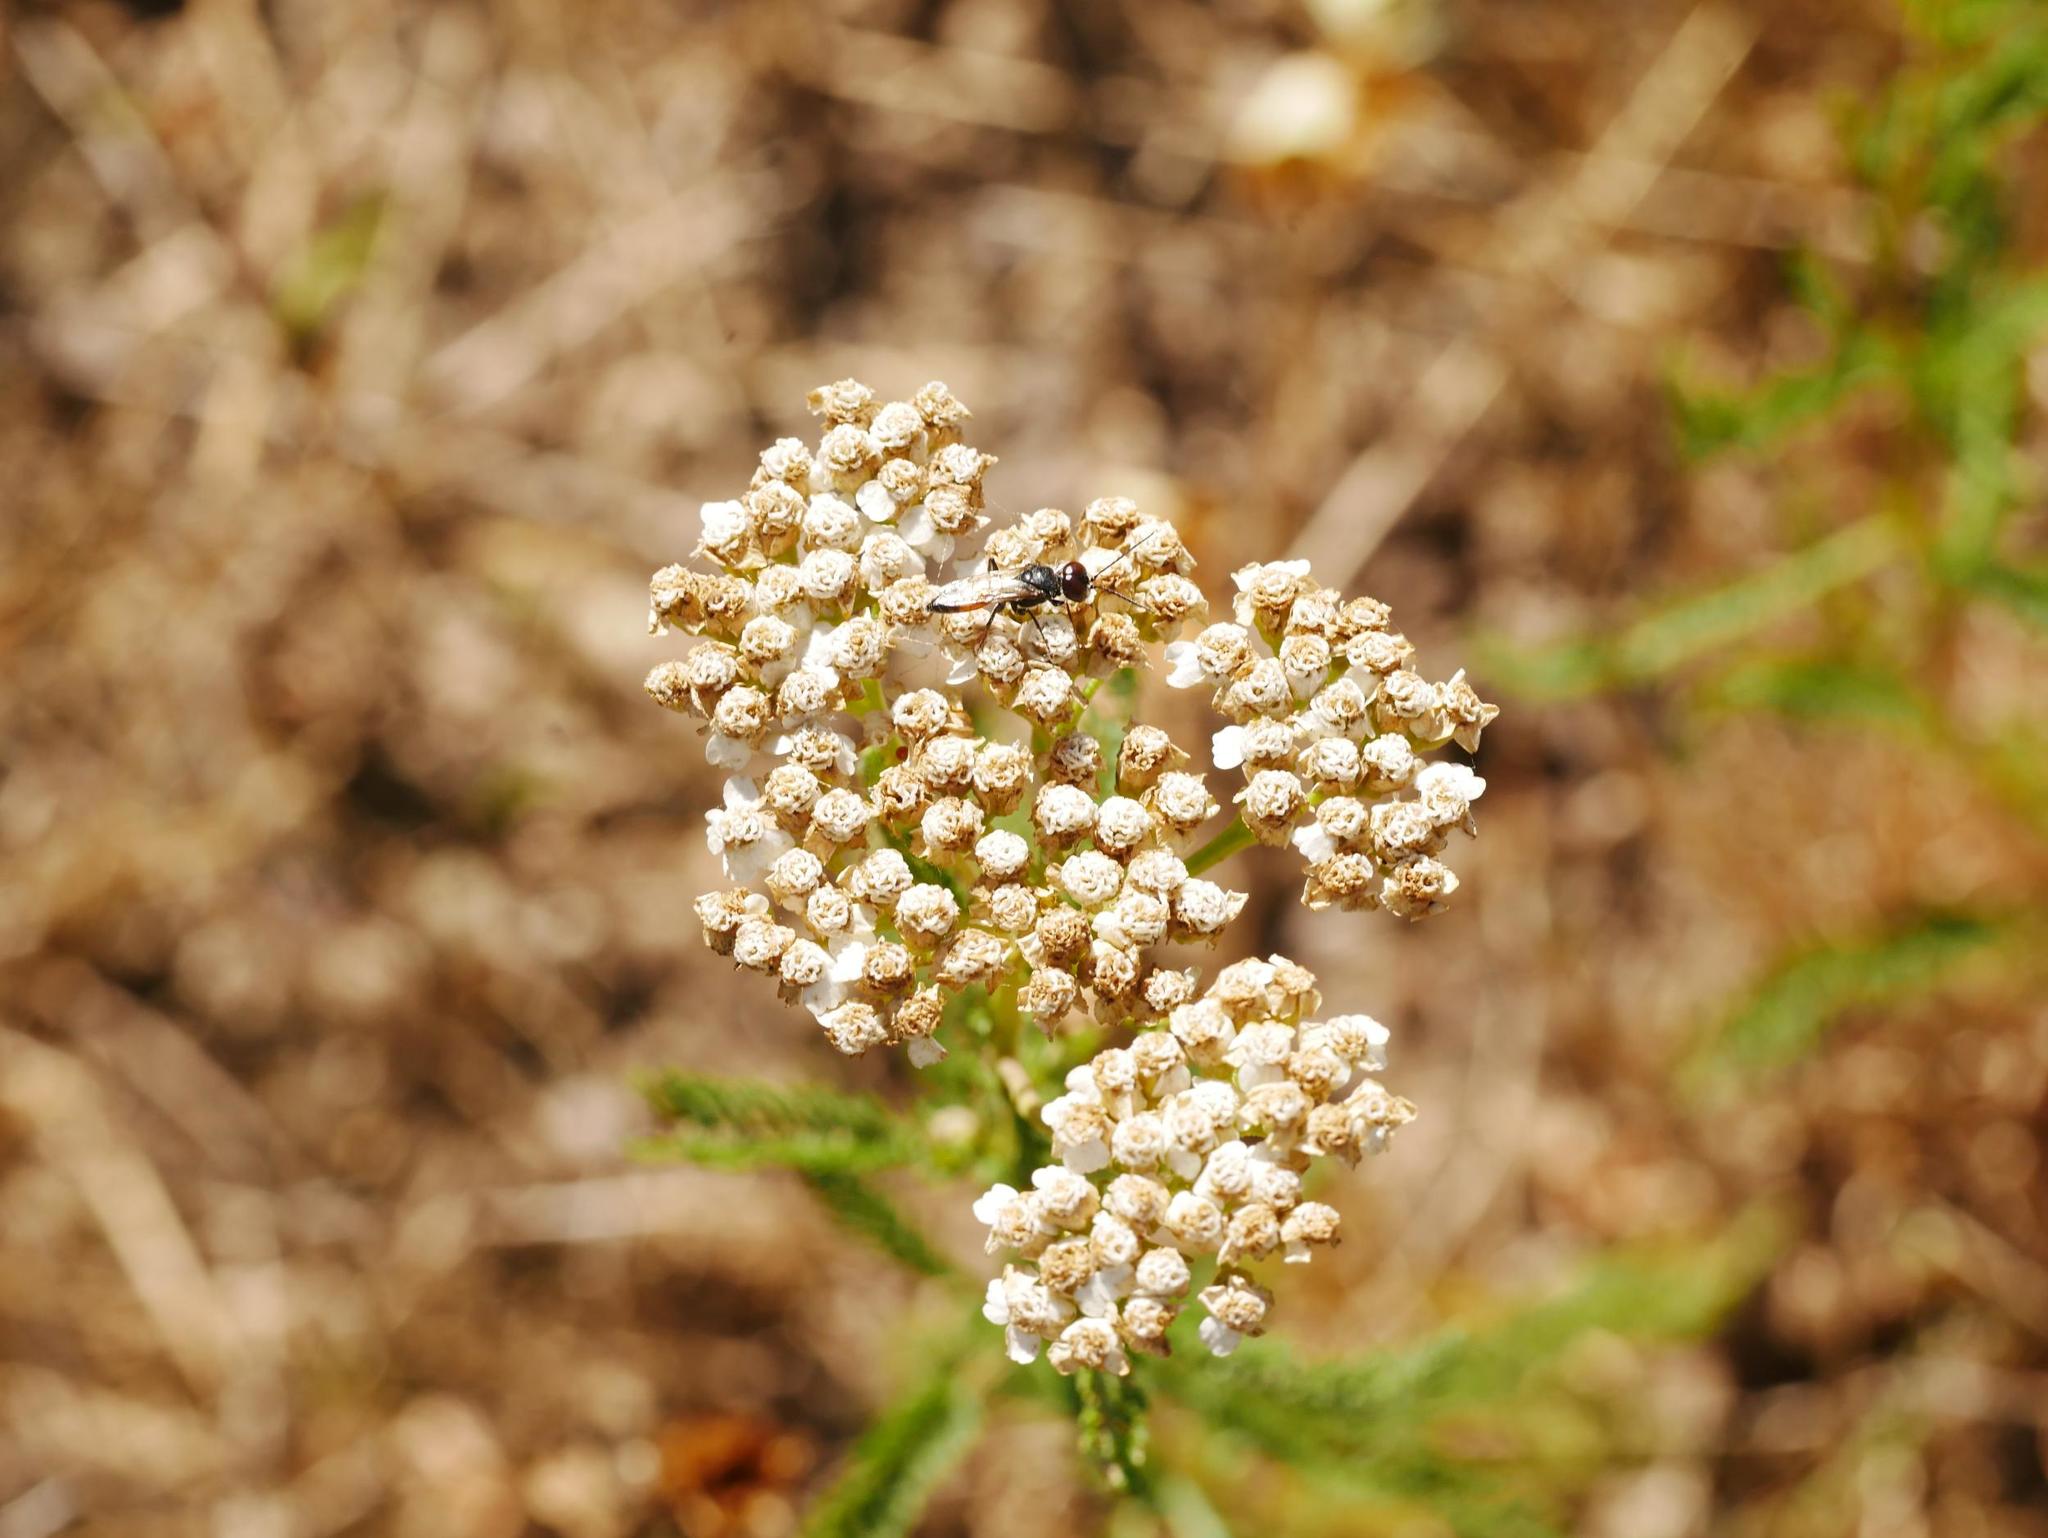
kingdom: Plantae
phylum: Tracheophyta
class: Magnoliopsida
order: Asterales
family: Asteraceae
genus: Achillea
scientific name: Achillea millefolium
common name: Yarrow
